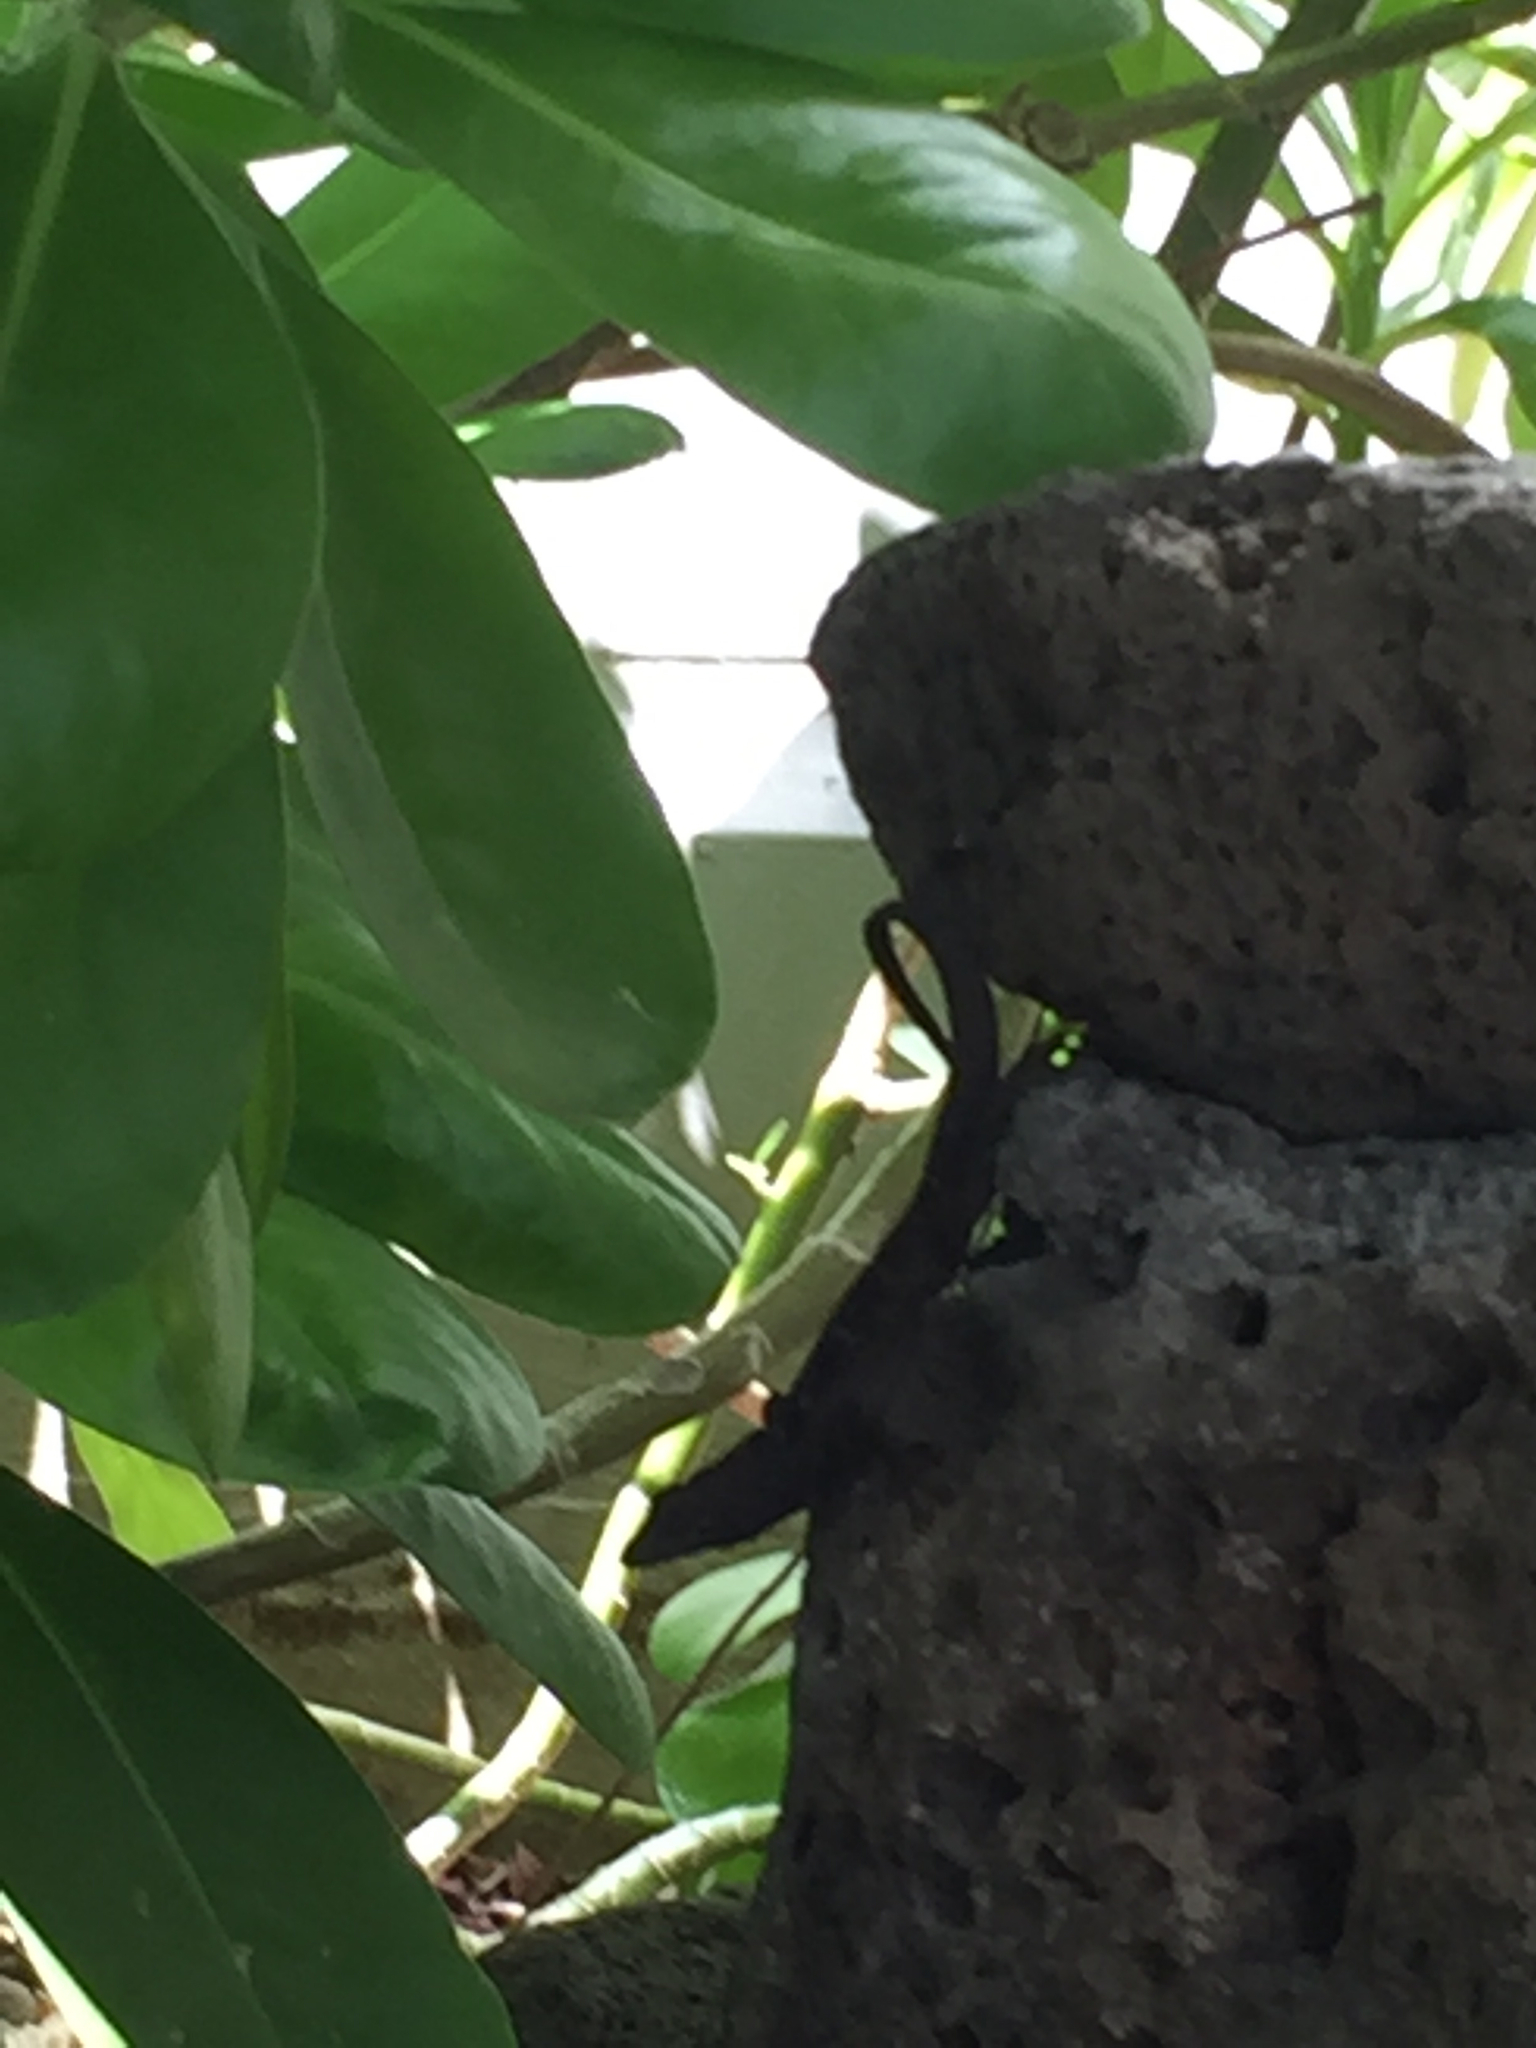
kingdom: Animalia
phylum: Chordata
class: Squamata
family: Dactyloidae
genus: Anolis
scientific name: Anolis sagrei
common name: Brown anole
